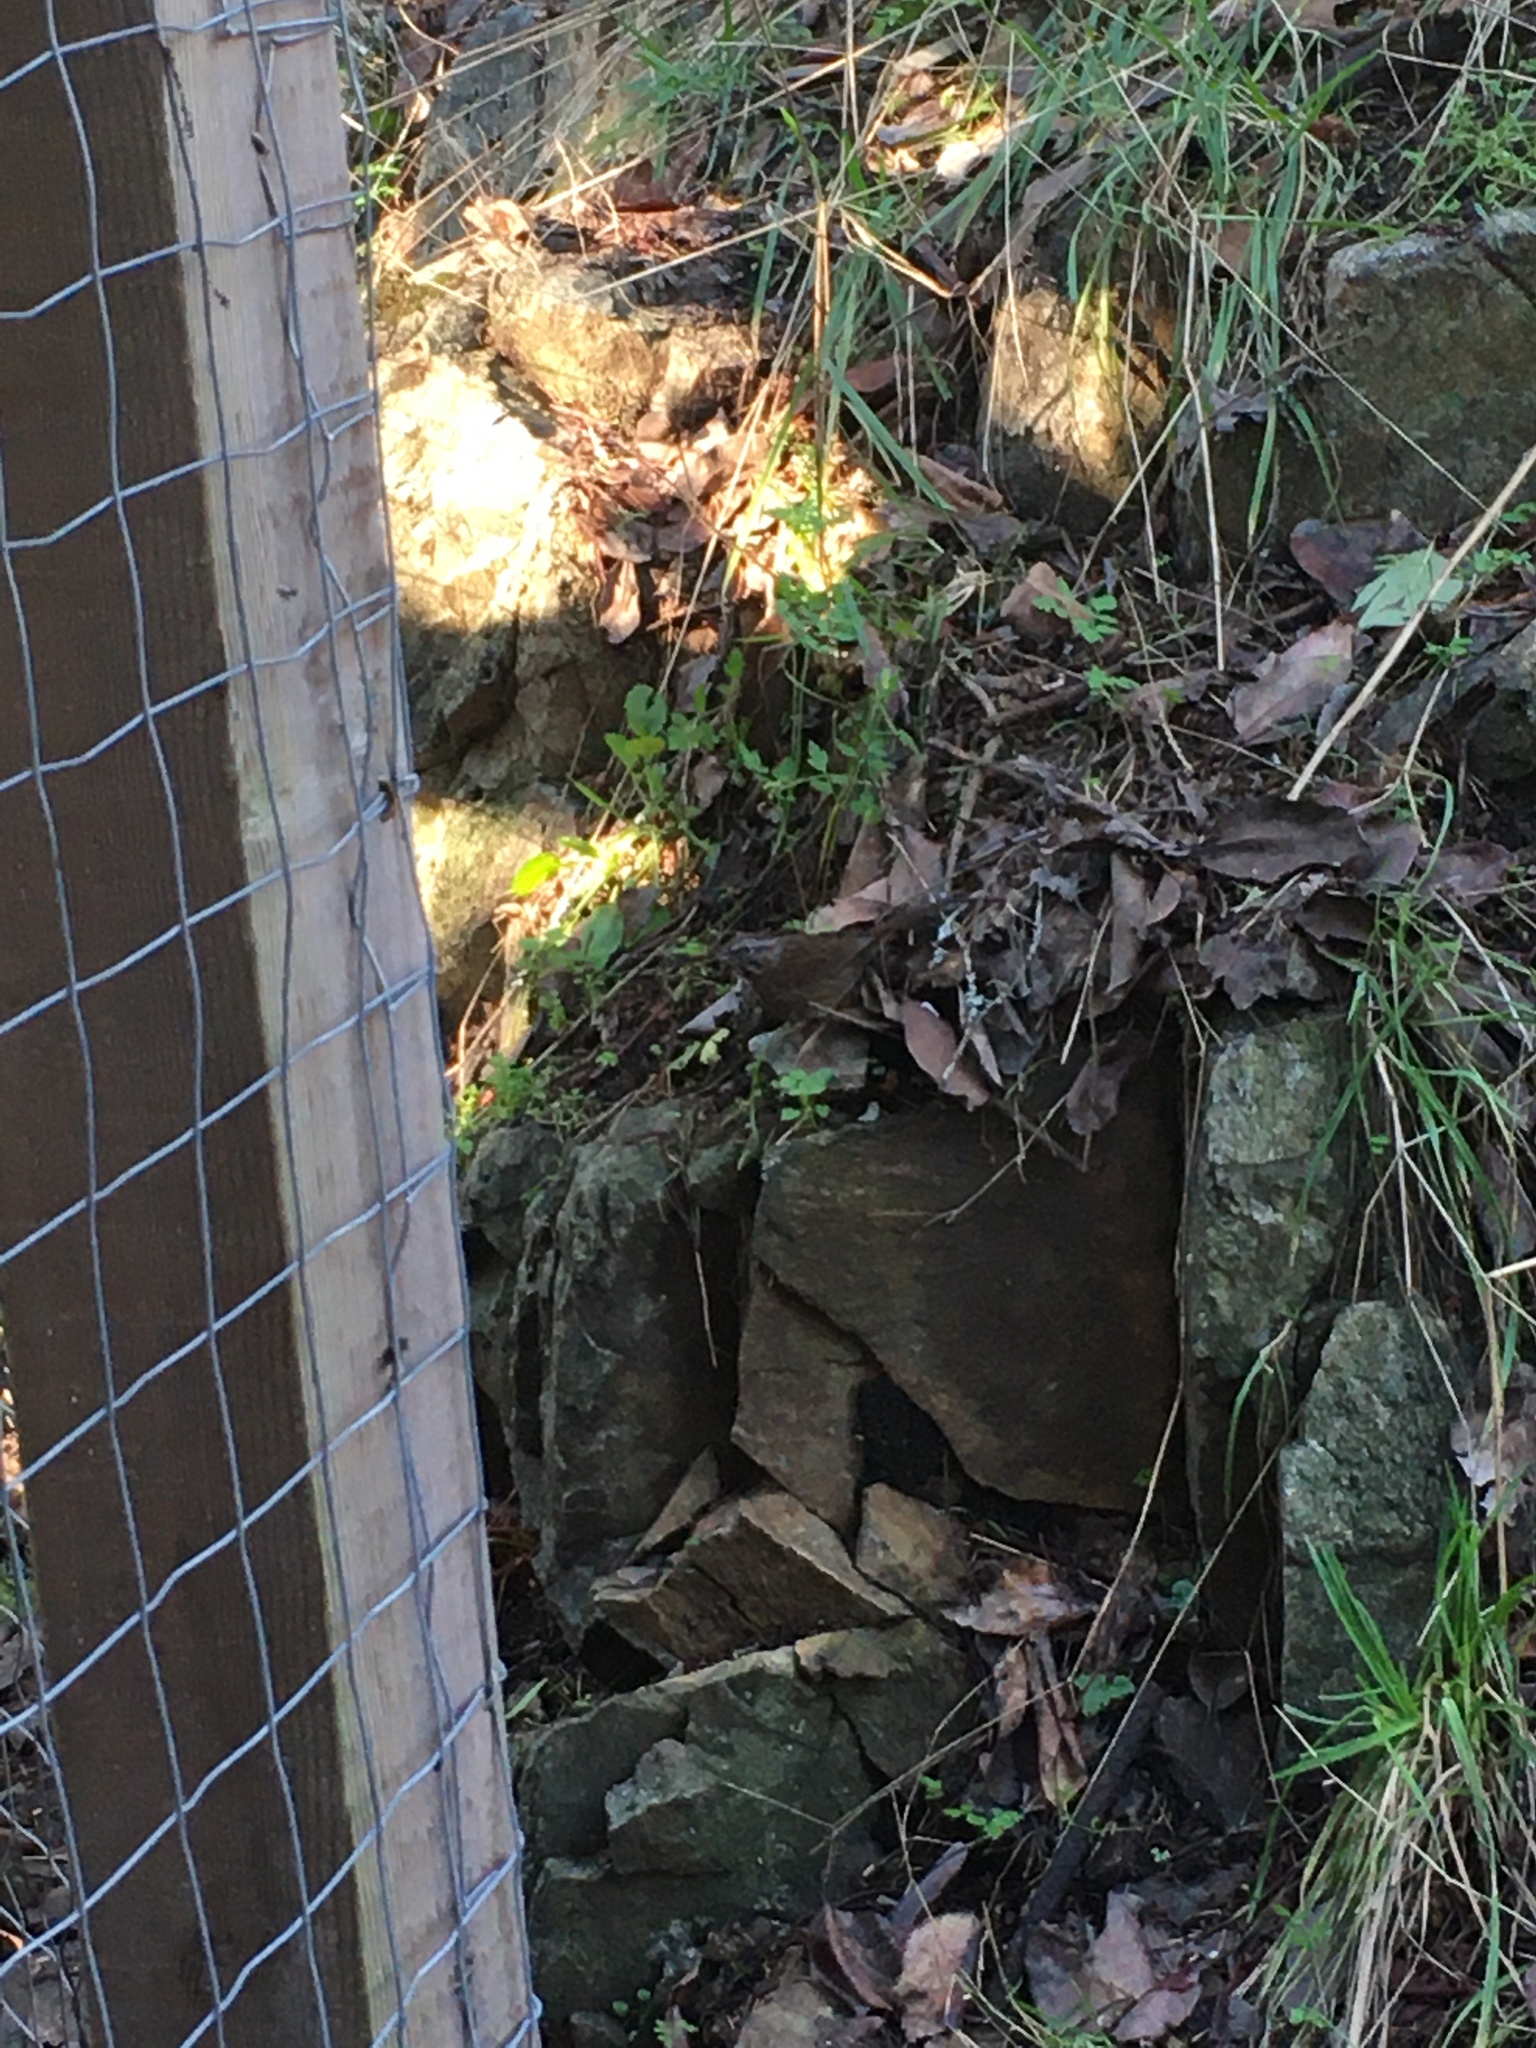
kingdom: Animalia
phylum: Chordata
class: Aves
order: Passeriformes
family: Passerellidae
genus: Melospiza
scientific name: Melospiza melodia
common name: Song sparrow
